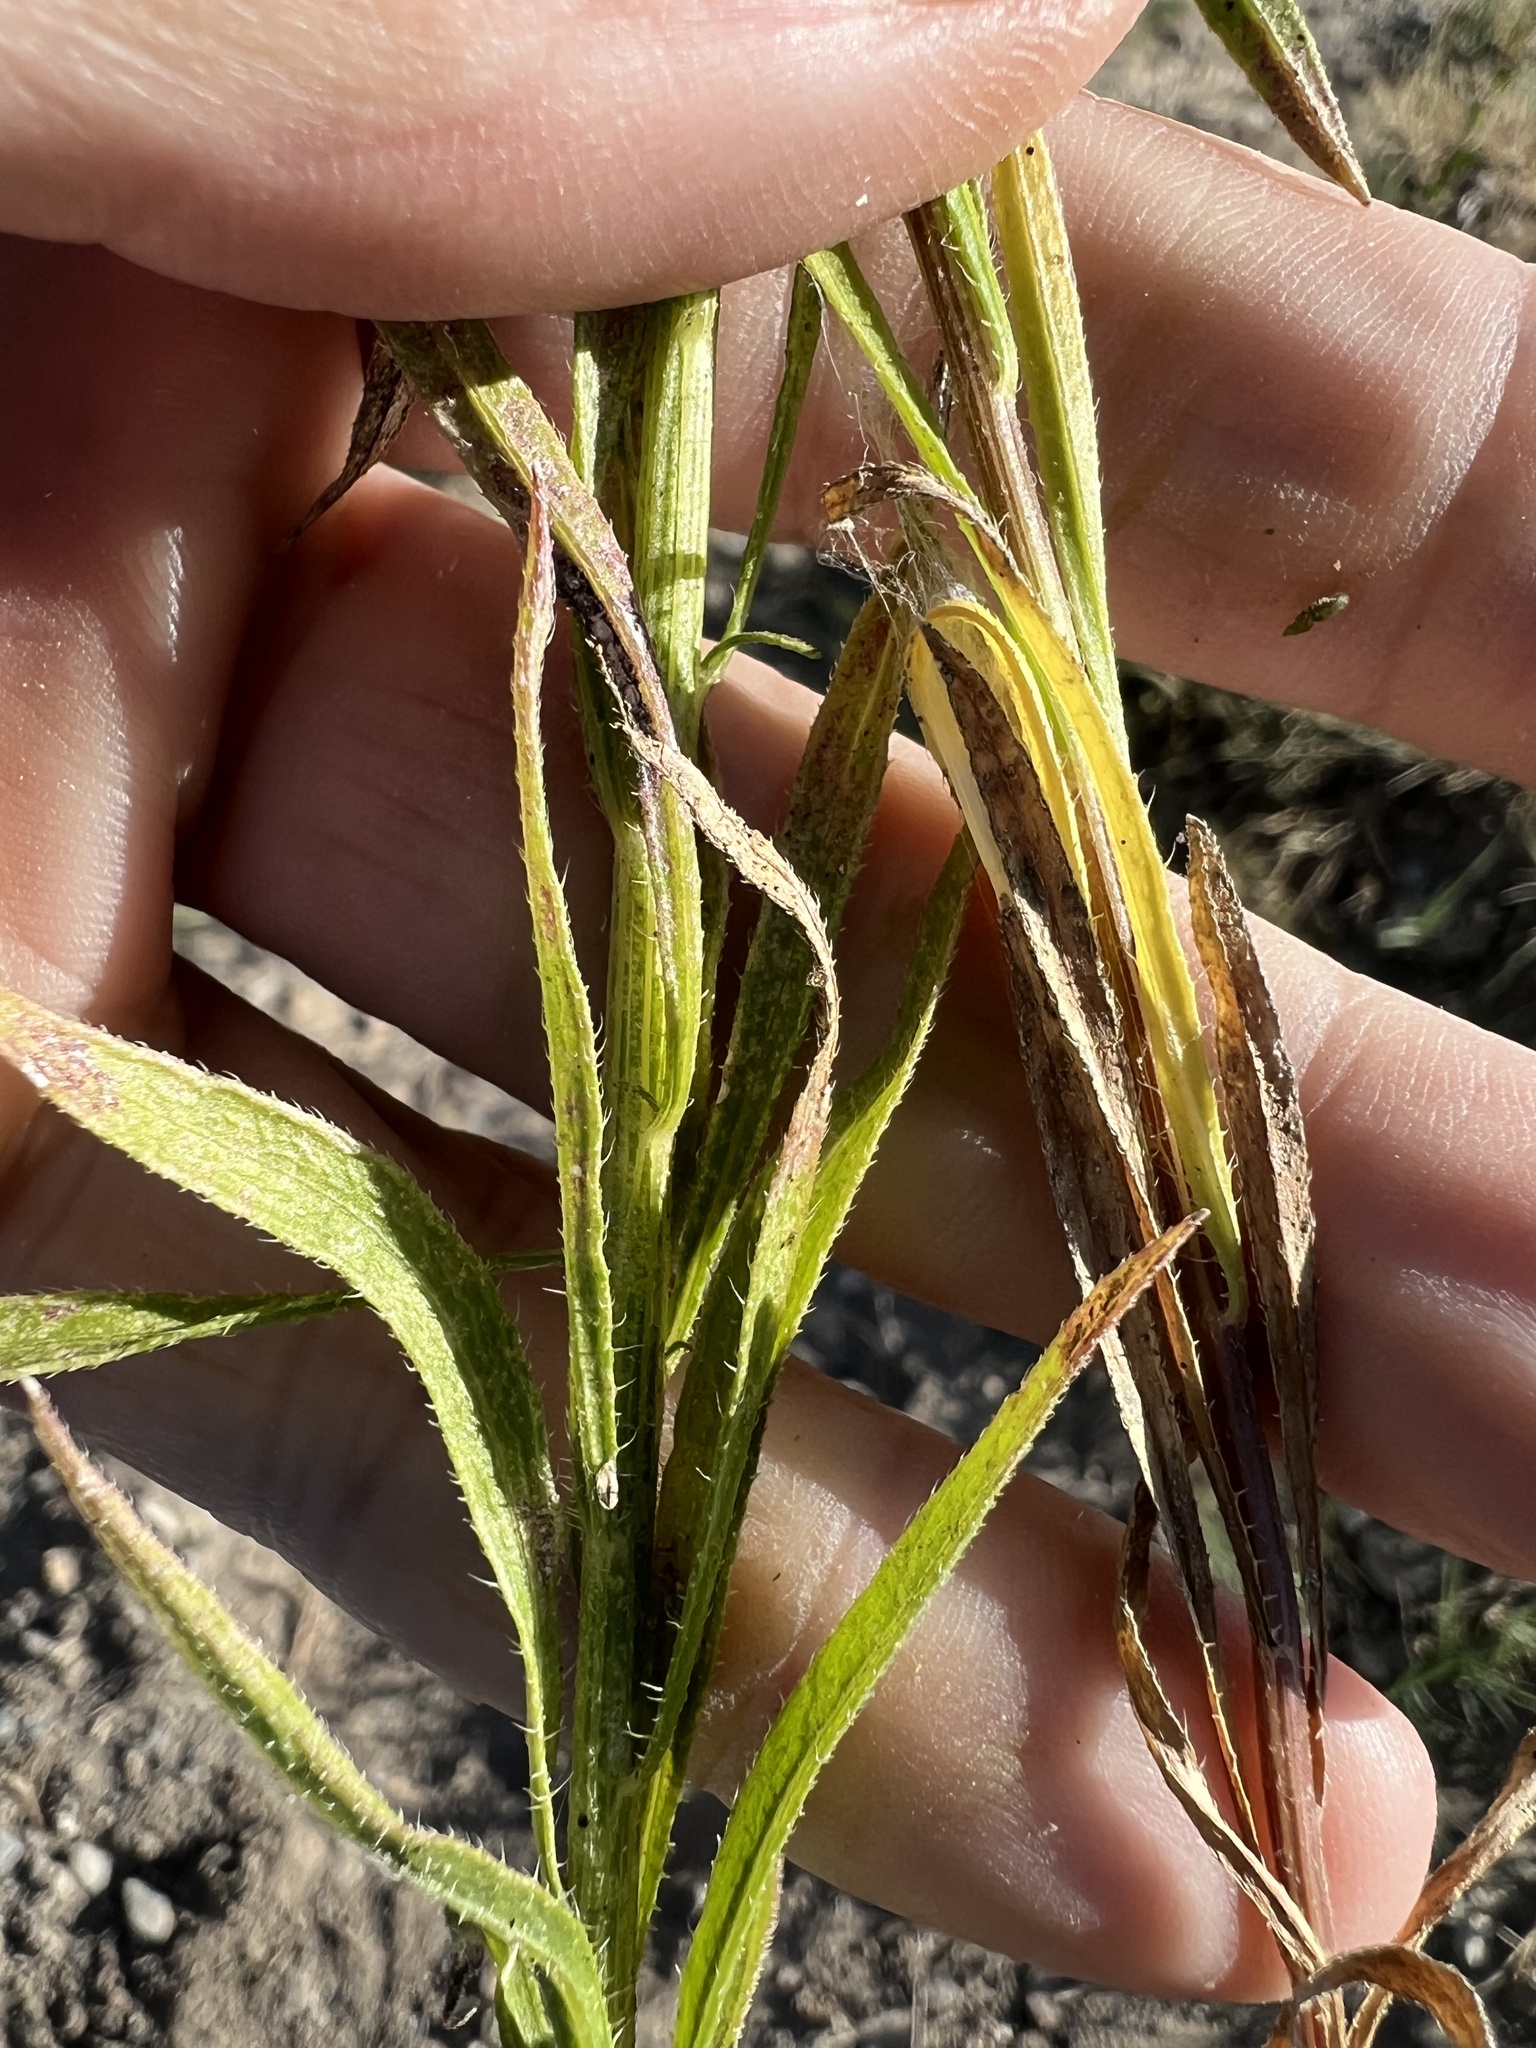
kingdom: Plantae
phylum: Tracheophyta
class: Magnoliopsida
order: Asterales
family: Asteraceae
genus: Erigeron
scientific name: Erigeron canadensis
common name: Canadian fleabane
